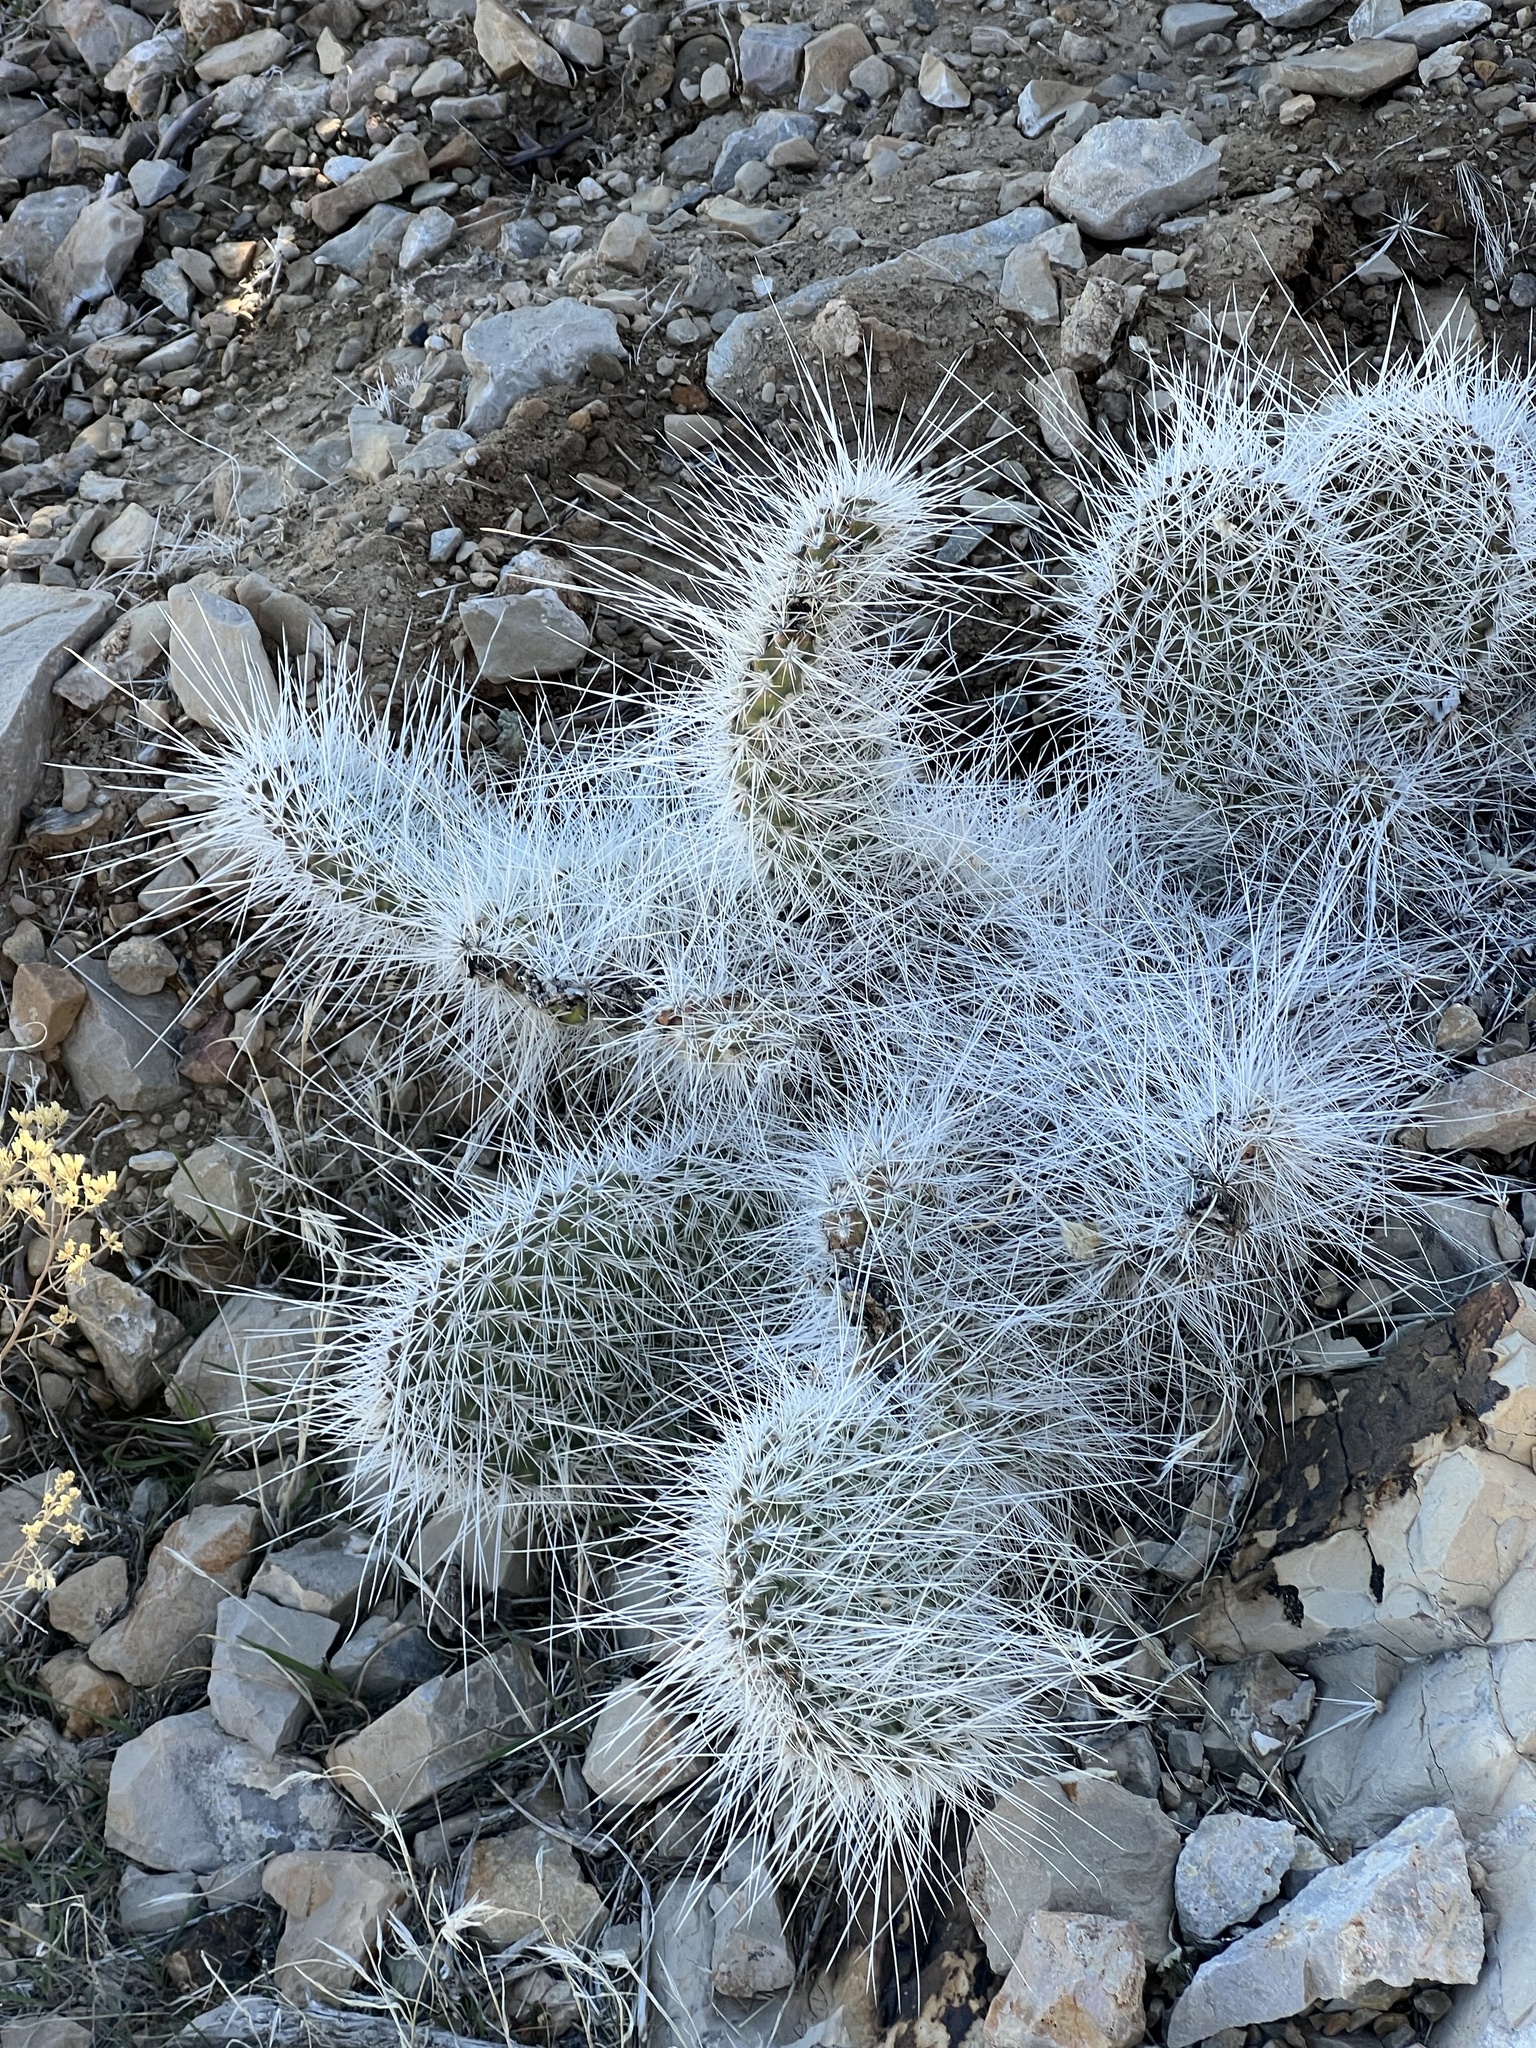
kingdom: Plantae
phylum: Tracheophyta
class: Magnoliopsida
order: Caryophyllales
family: Cactaceae
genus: Opuntia
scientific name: Opuntia polyacantha
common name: Plains prickly-pear
